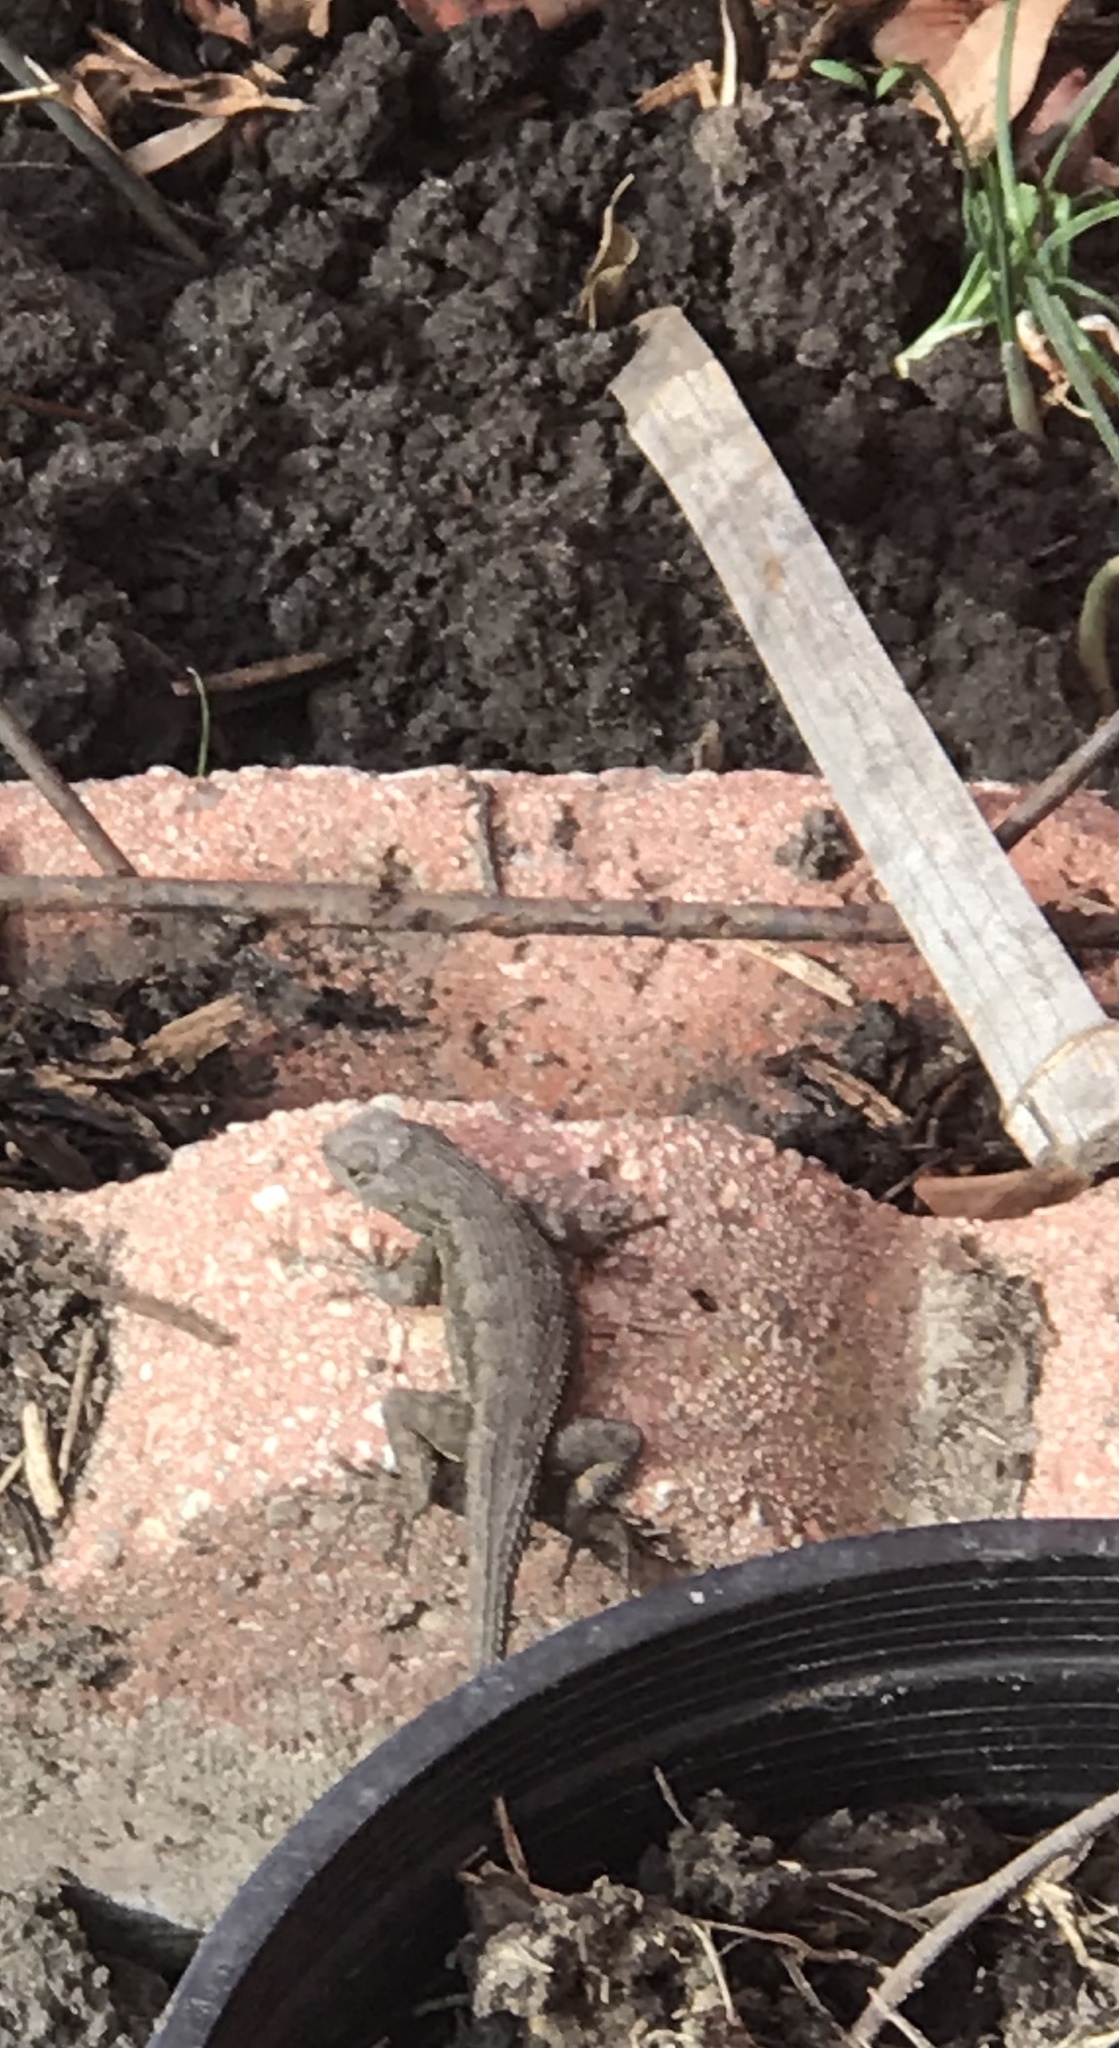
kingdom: Animalia
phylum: Chordata
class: Squamata
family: Phrynosomatidae
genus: Sceloporus
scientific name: Sceloporus occidentalis
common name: Western fence lizard
